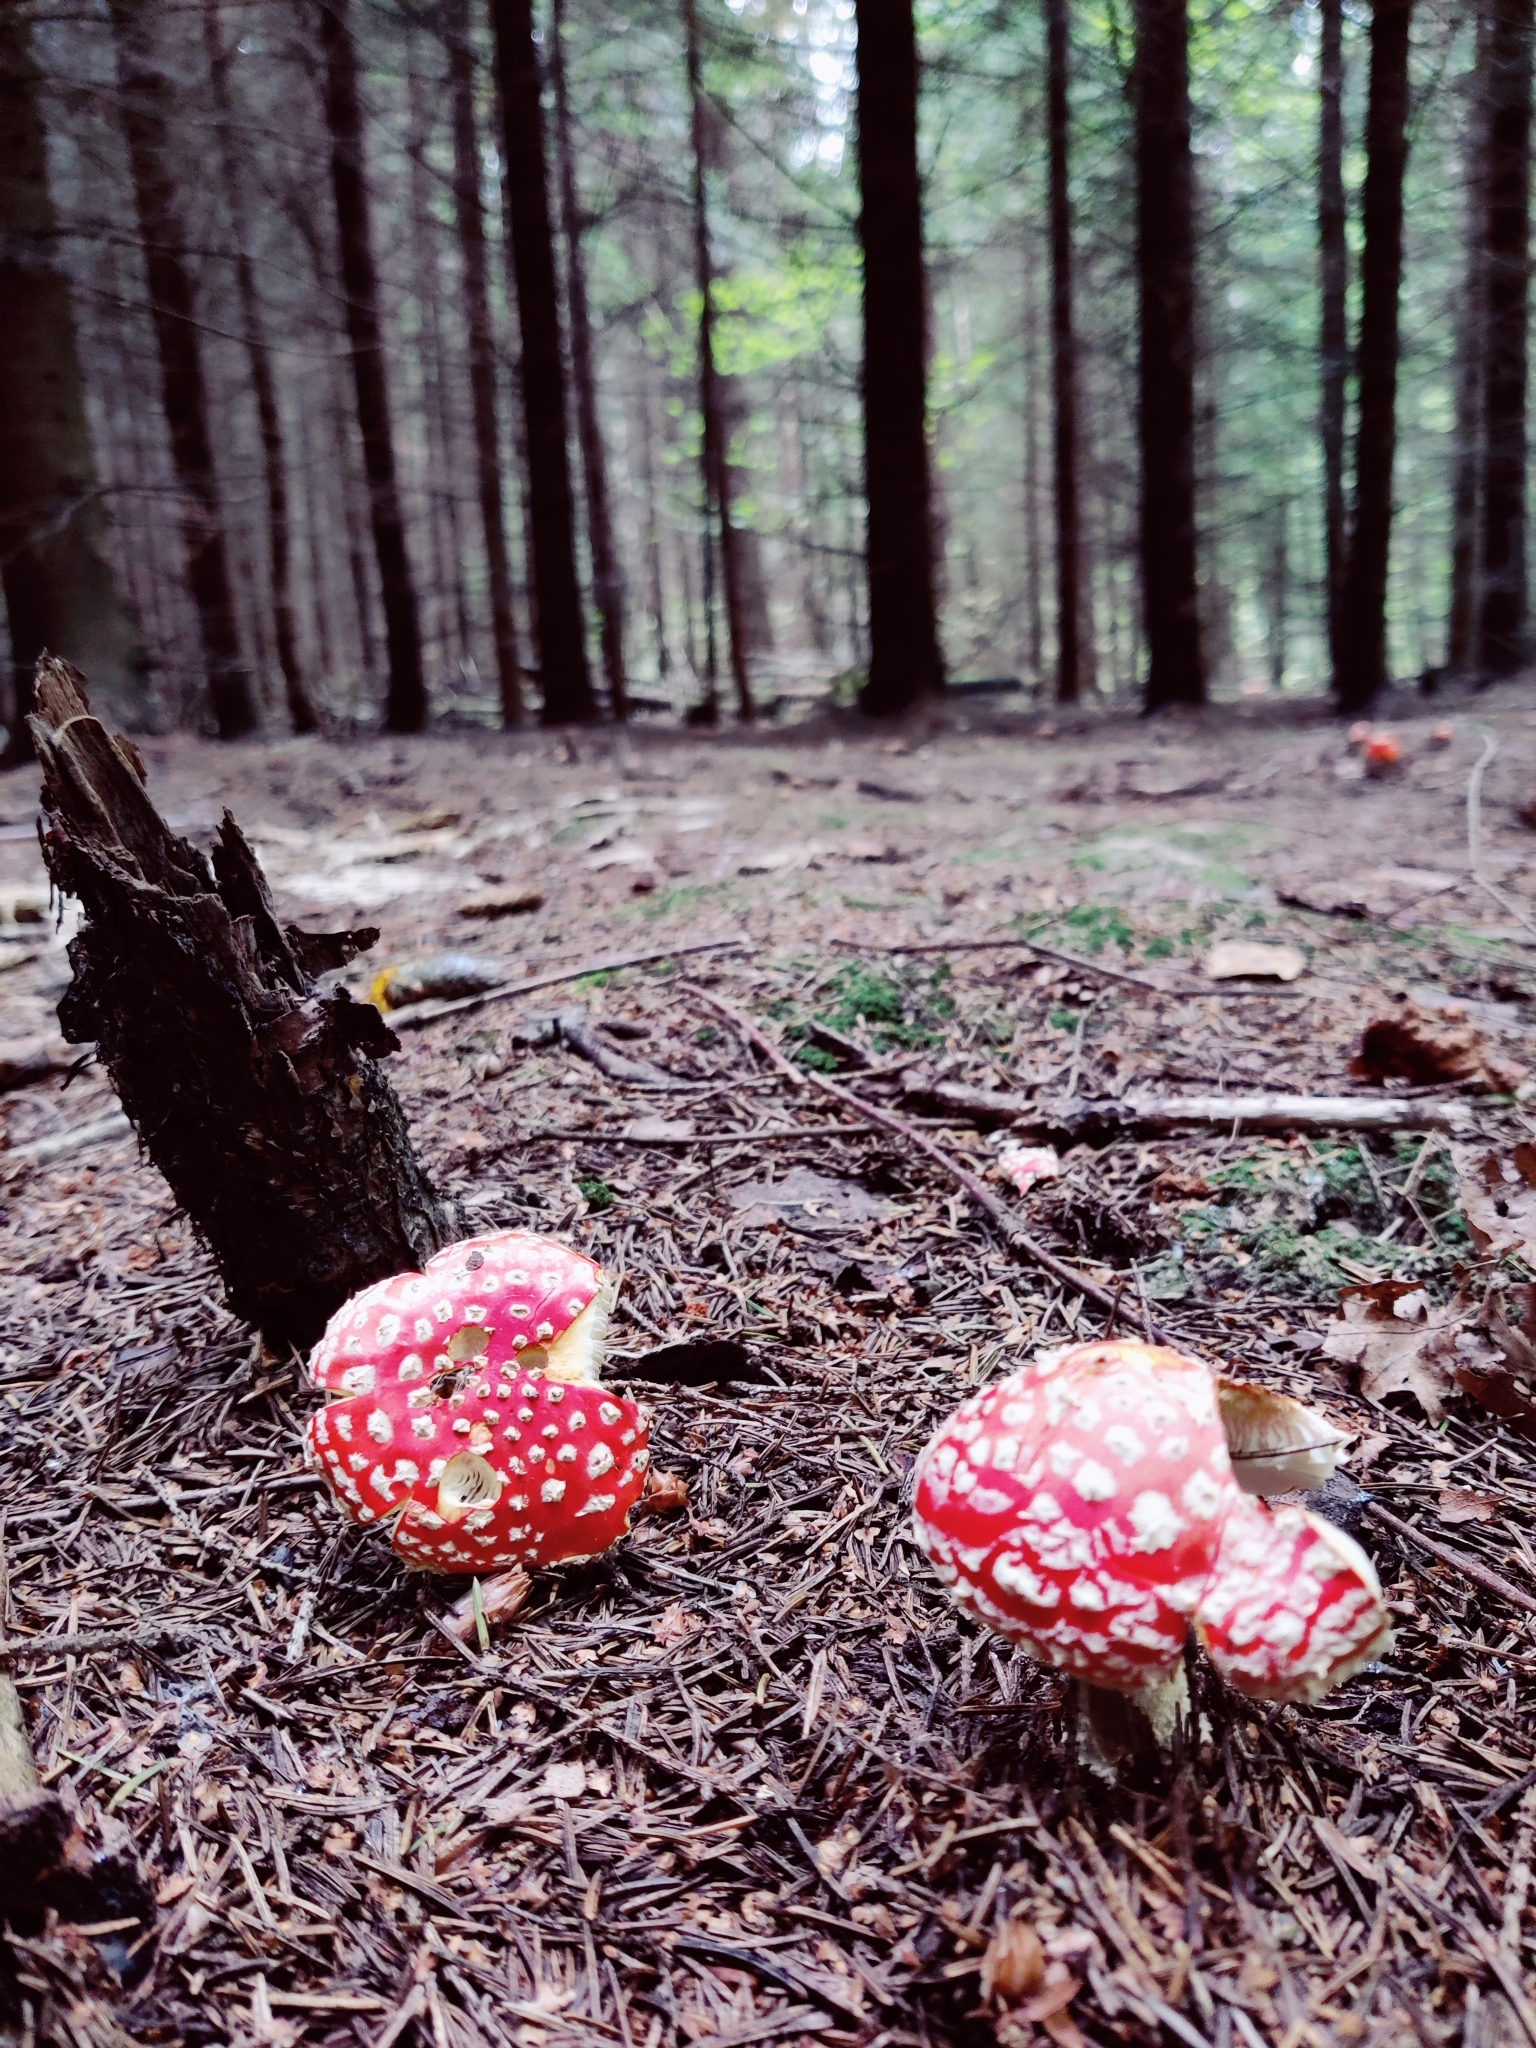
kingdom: Fungi
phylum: Basidiomycota
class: Agaricomycetes
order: Agaricales
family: Amanitaceae
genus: Amanita
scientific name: Amanita muscaria
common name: Fly agaric
